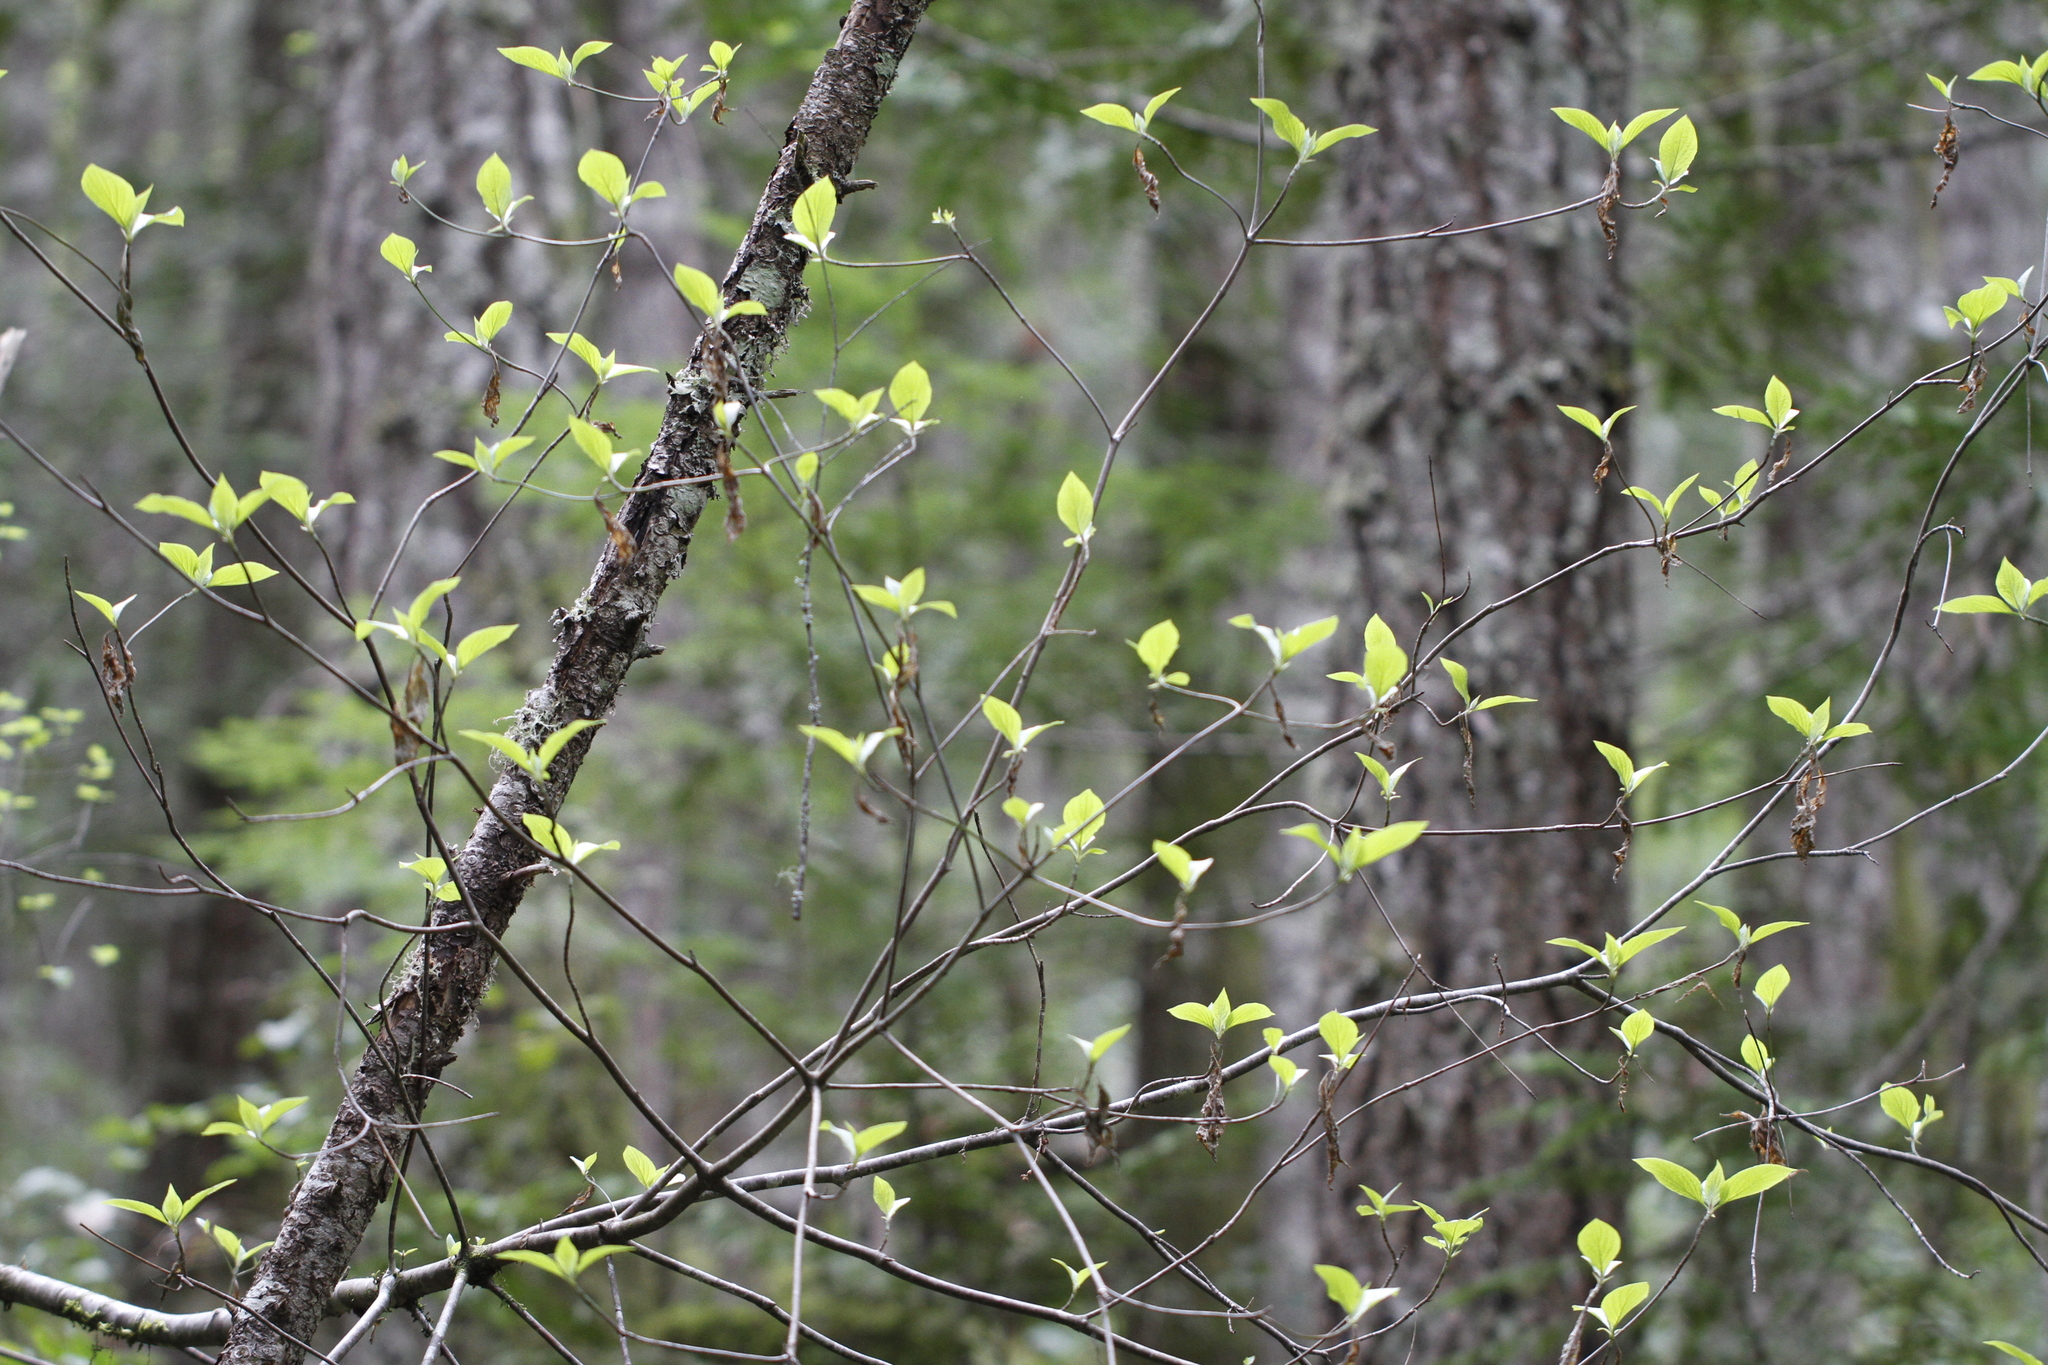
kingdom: Plantae
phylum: Tracheophyta
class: Magnoliopsida
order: Cornales
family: Cornaceae
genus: Cornus
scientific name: Cornus nuttallii
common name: Pacific dogwood
